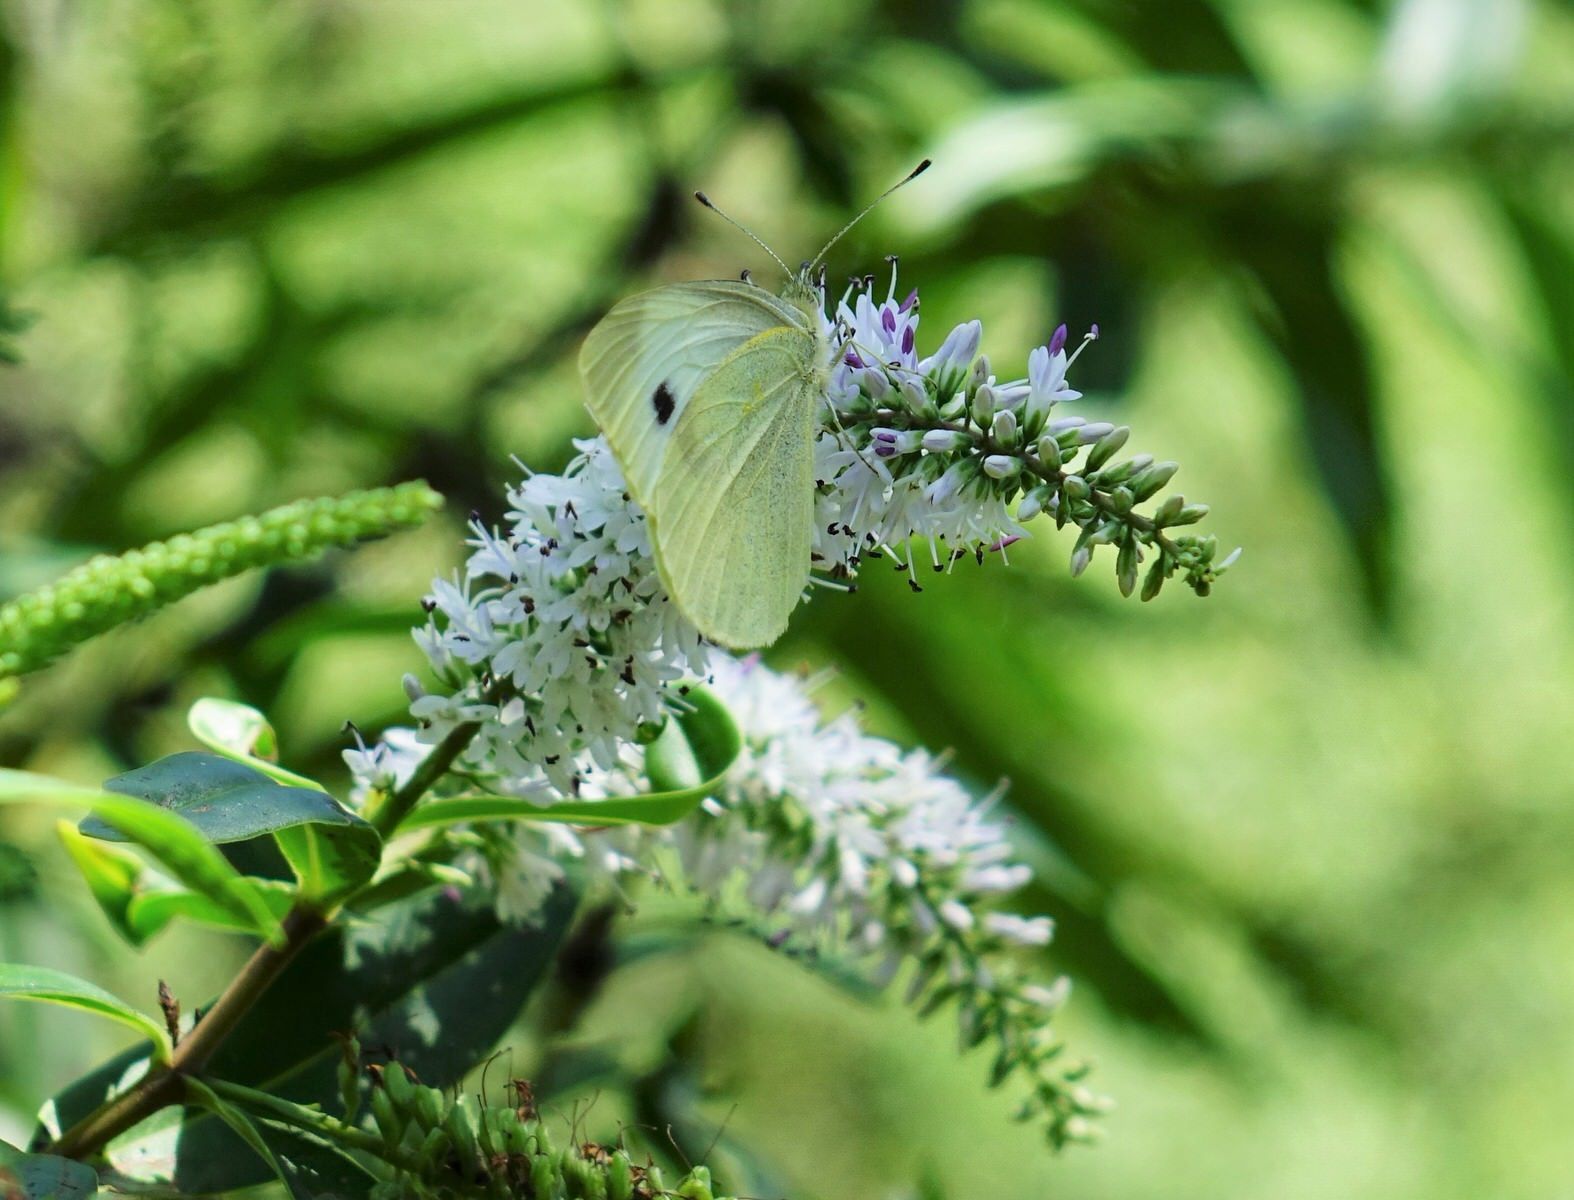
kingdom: Animalia
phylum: Arthropoda
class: Insecta
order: Lepidoptera
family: Pieridae
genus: Pieris
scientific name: Pieris rapae
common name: Small white
